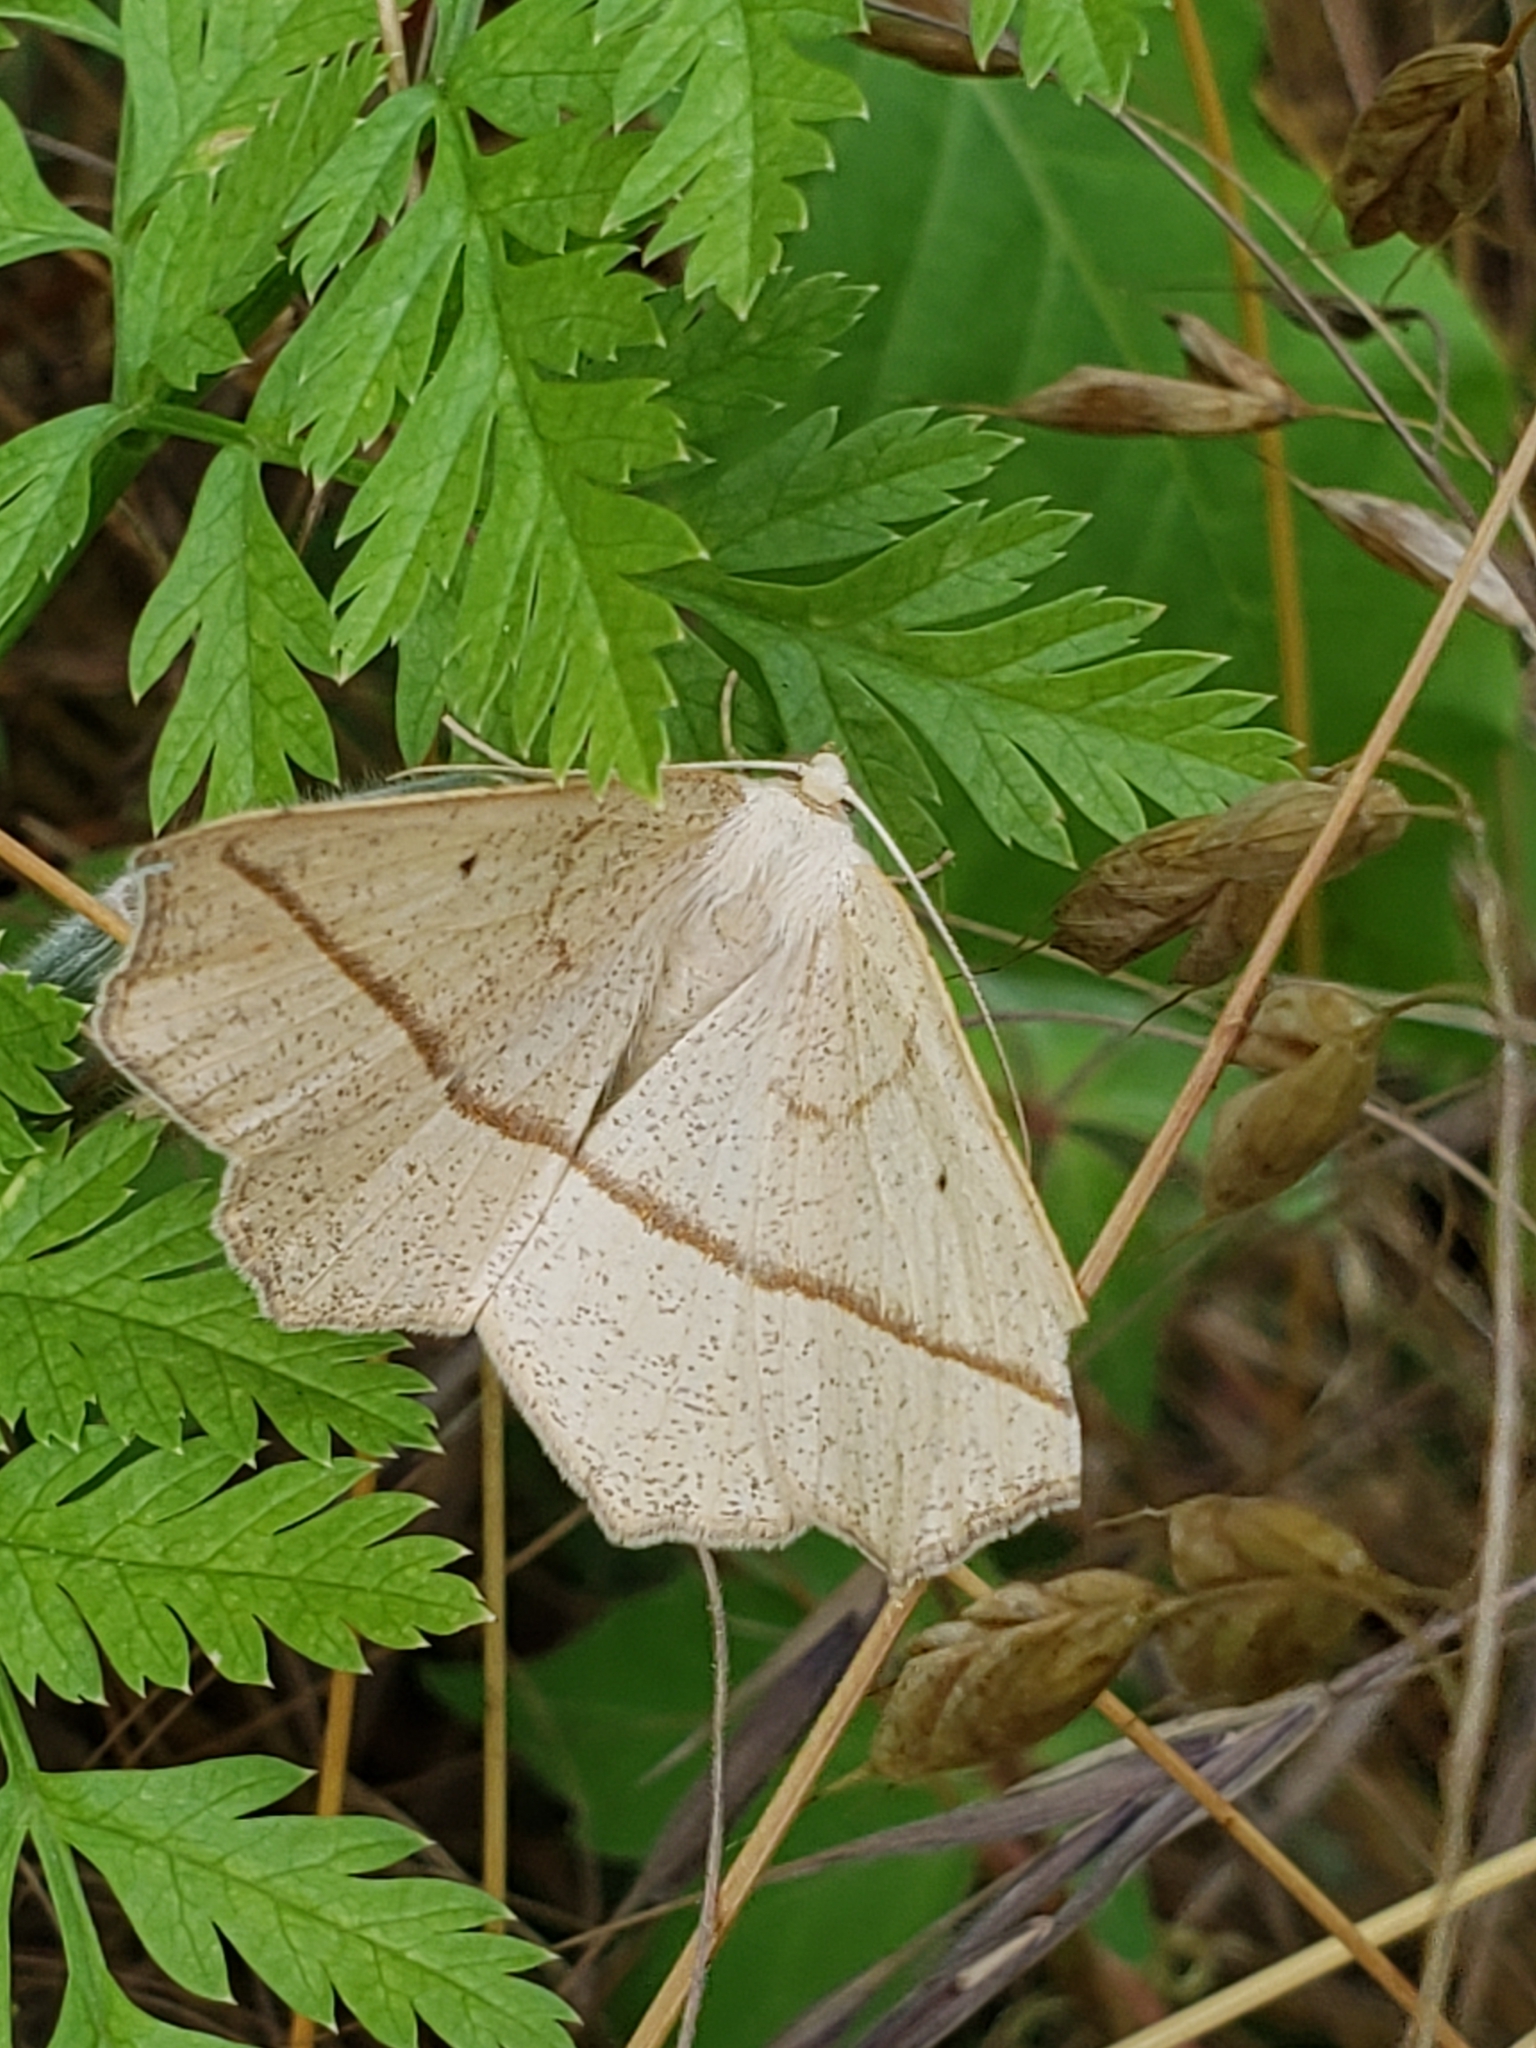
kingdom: Animalia
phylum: Arthropoda
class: Insecta
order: Lepidoptera
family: Geometridae
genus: Eusarca
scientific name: Eusarca confusaria
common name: Confused eusarca
